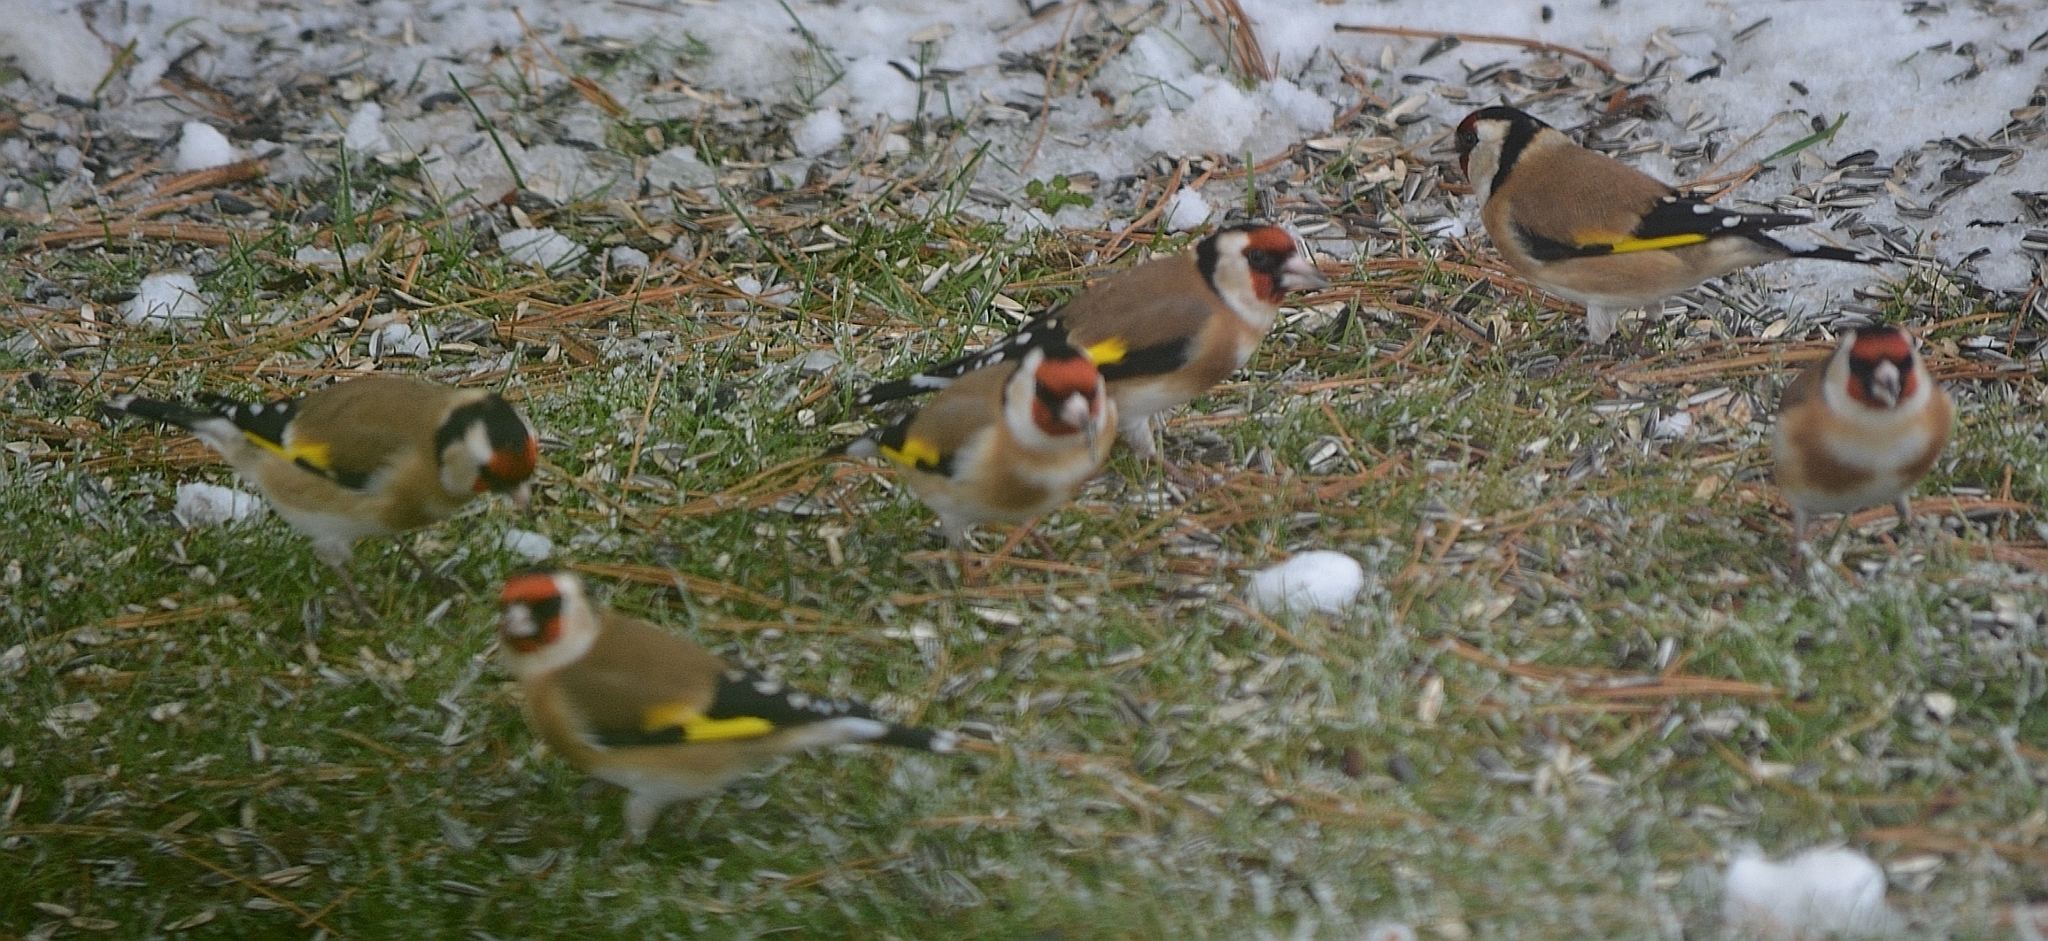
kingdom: Animalia
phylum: Chordata
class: Aves
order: Passeriformes
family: Fringillidae
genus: Carduelis
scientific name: Carduelis carduelis
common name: European goldfinch
